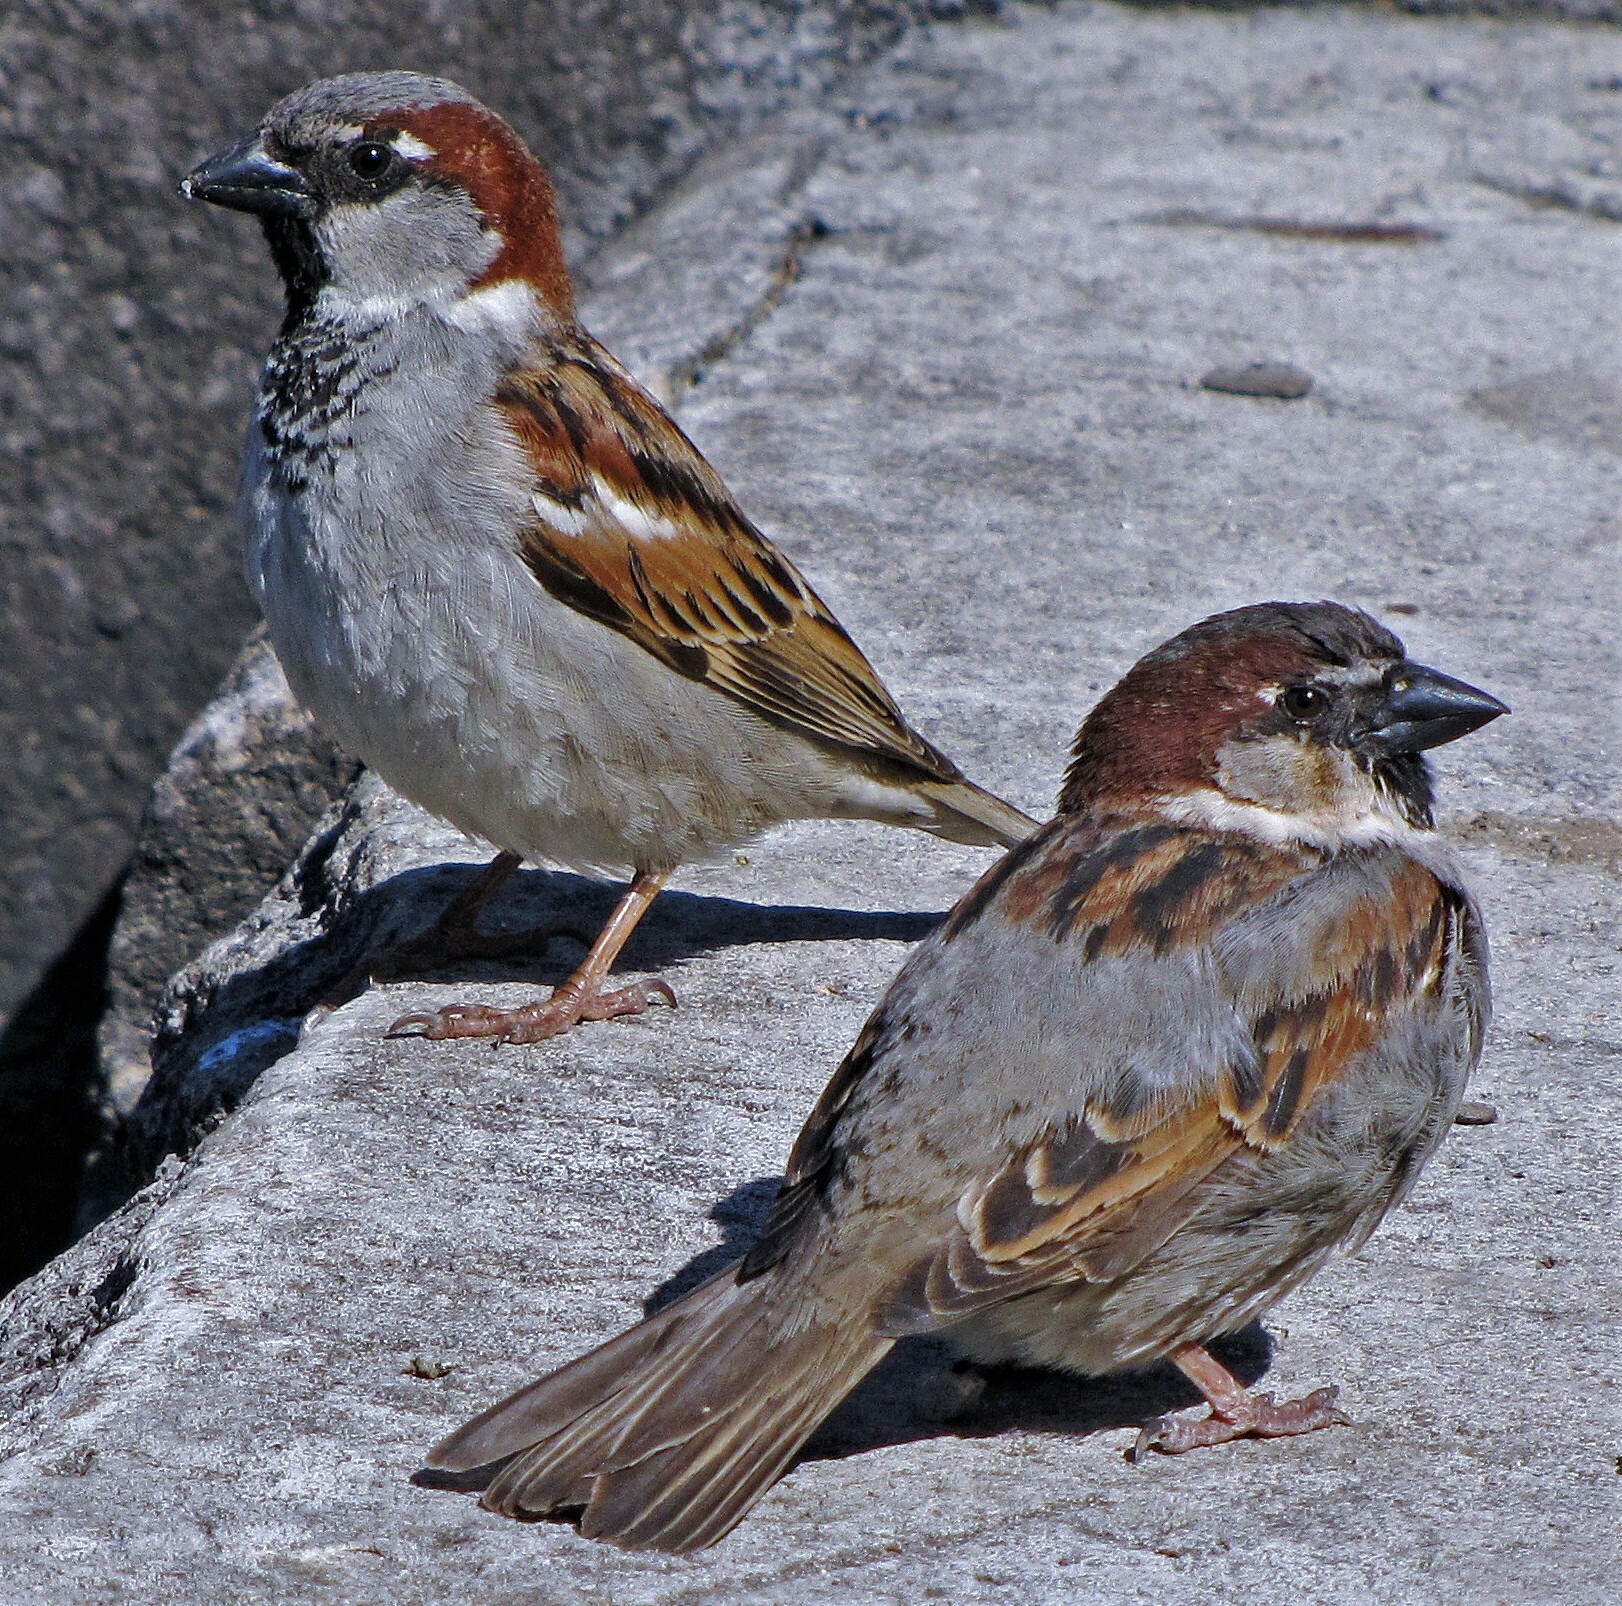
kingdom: Animalia
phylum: Chordata
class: Aves
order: Passeriformes
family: Passeridae
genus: Passer
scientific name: Passer domesticus
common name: House sparrow
